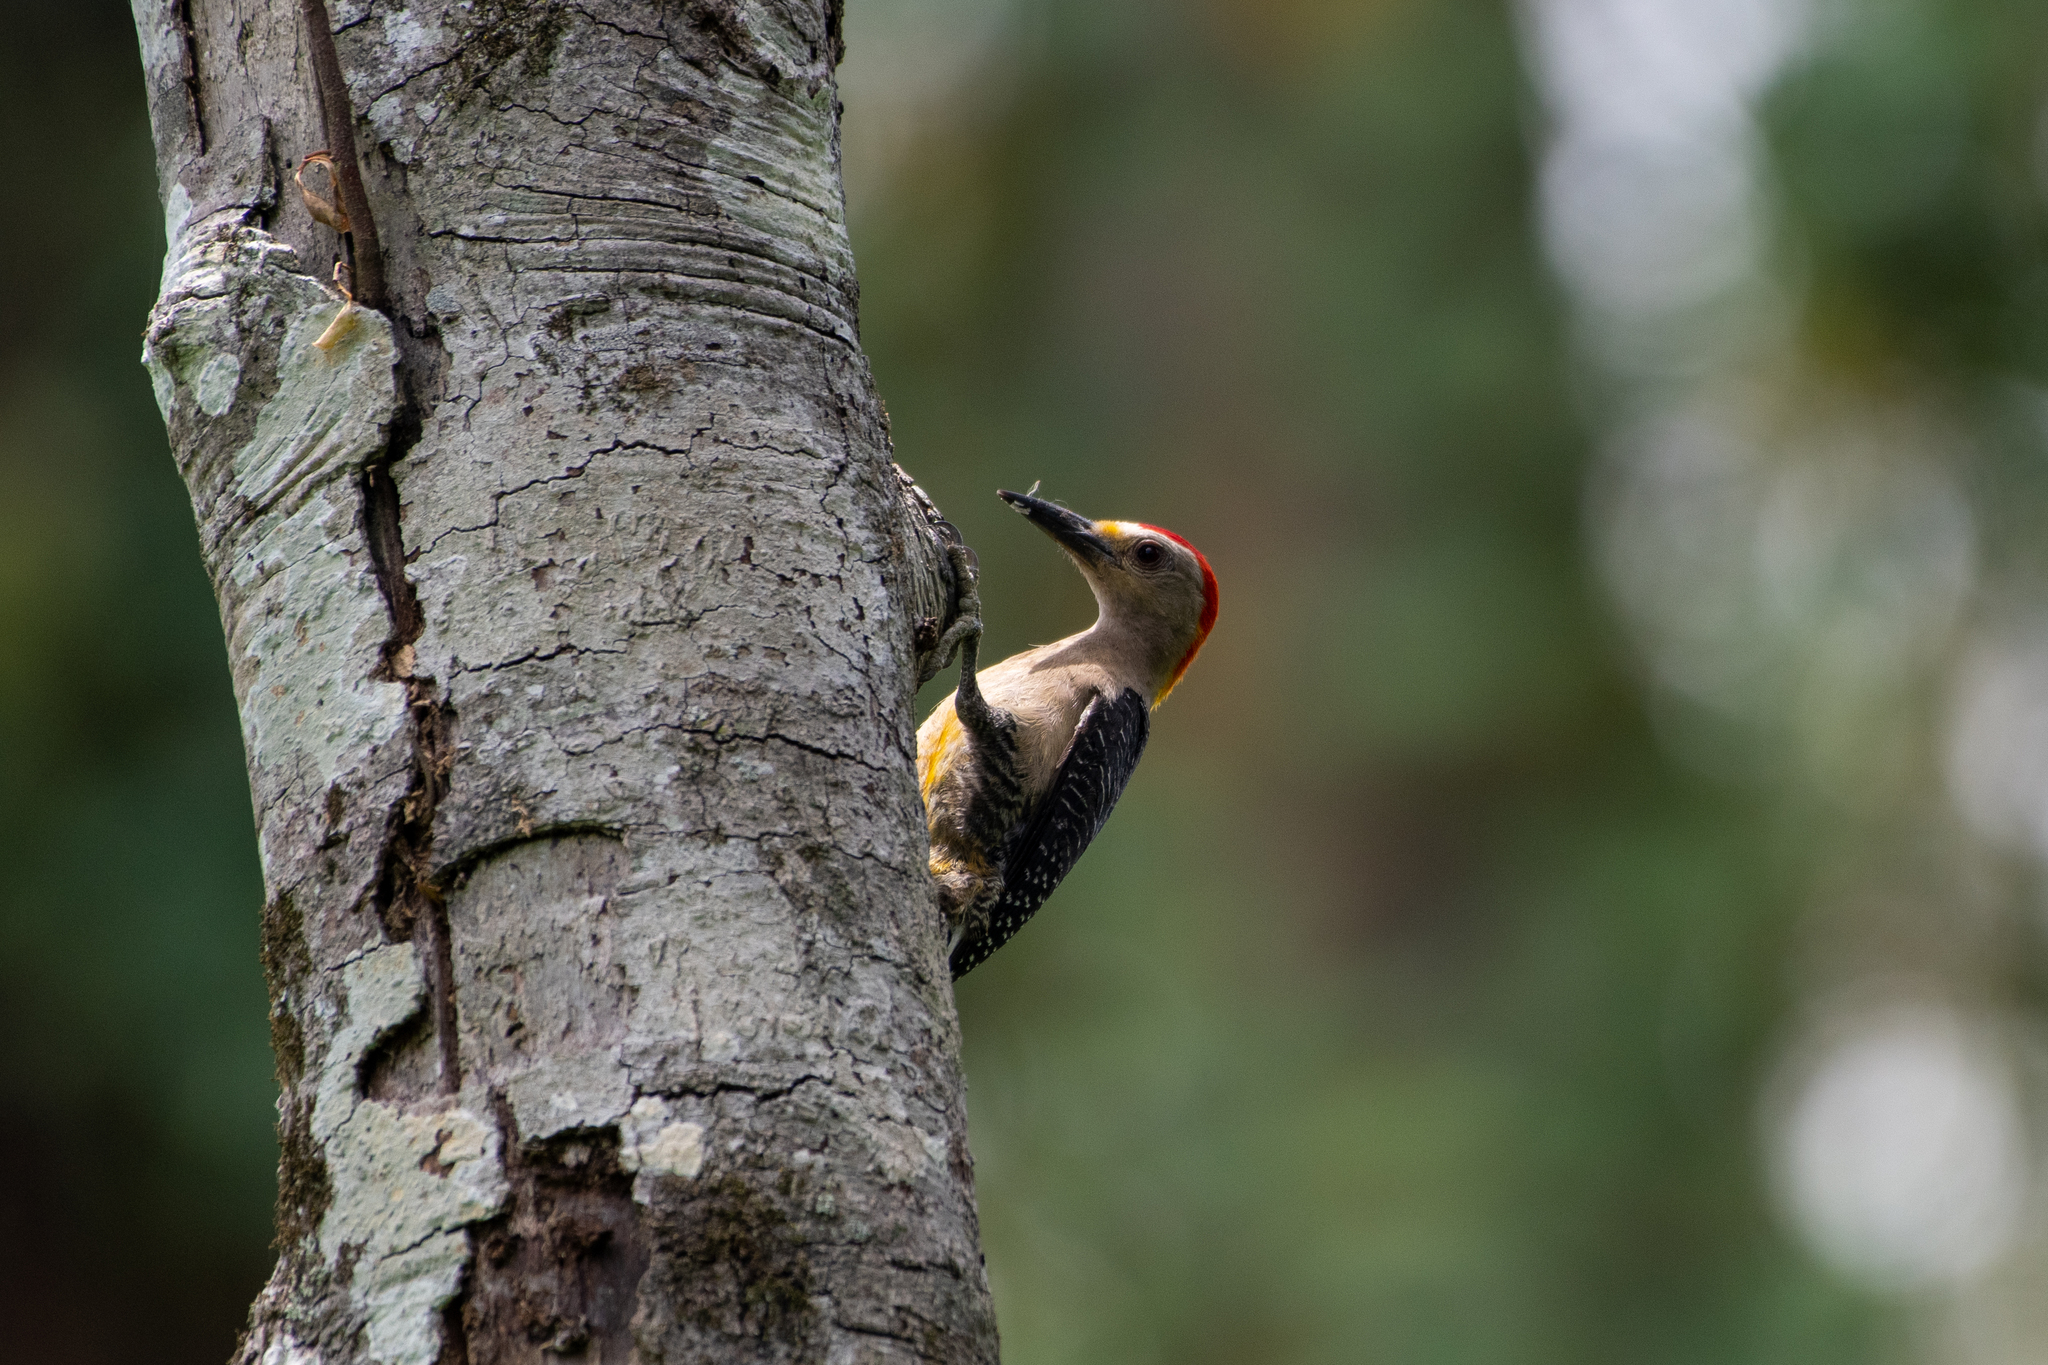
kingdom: Animalia
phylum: Chordata
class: Aves
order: Piciformes
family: Picidae
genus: Melanerpes
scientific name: Melanerpes aurifrons
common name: Golden-fronted woodpecker
